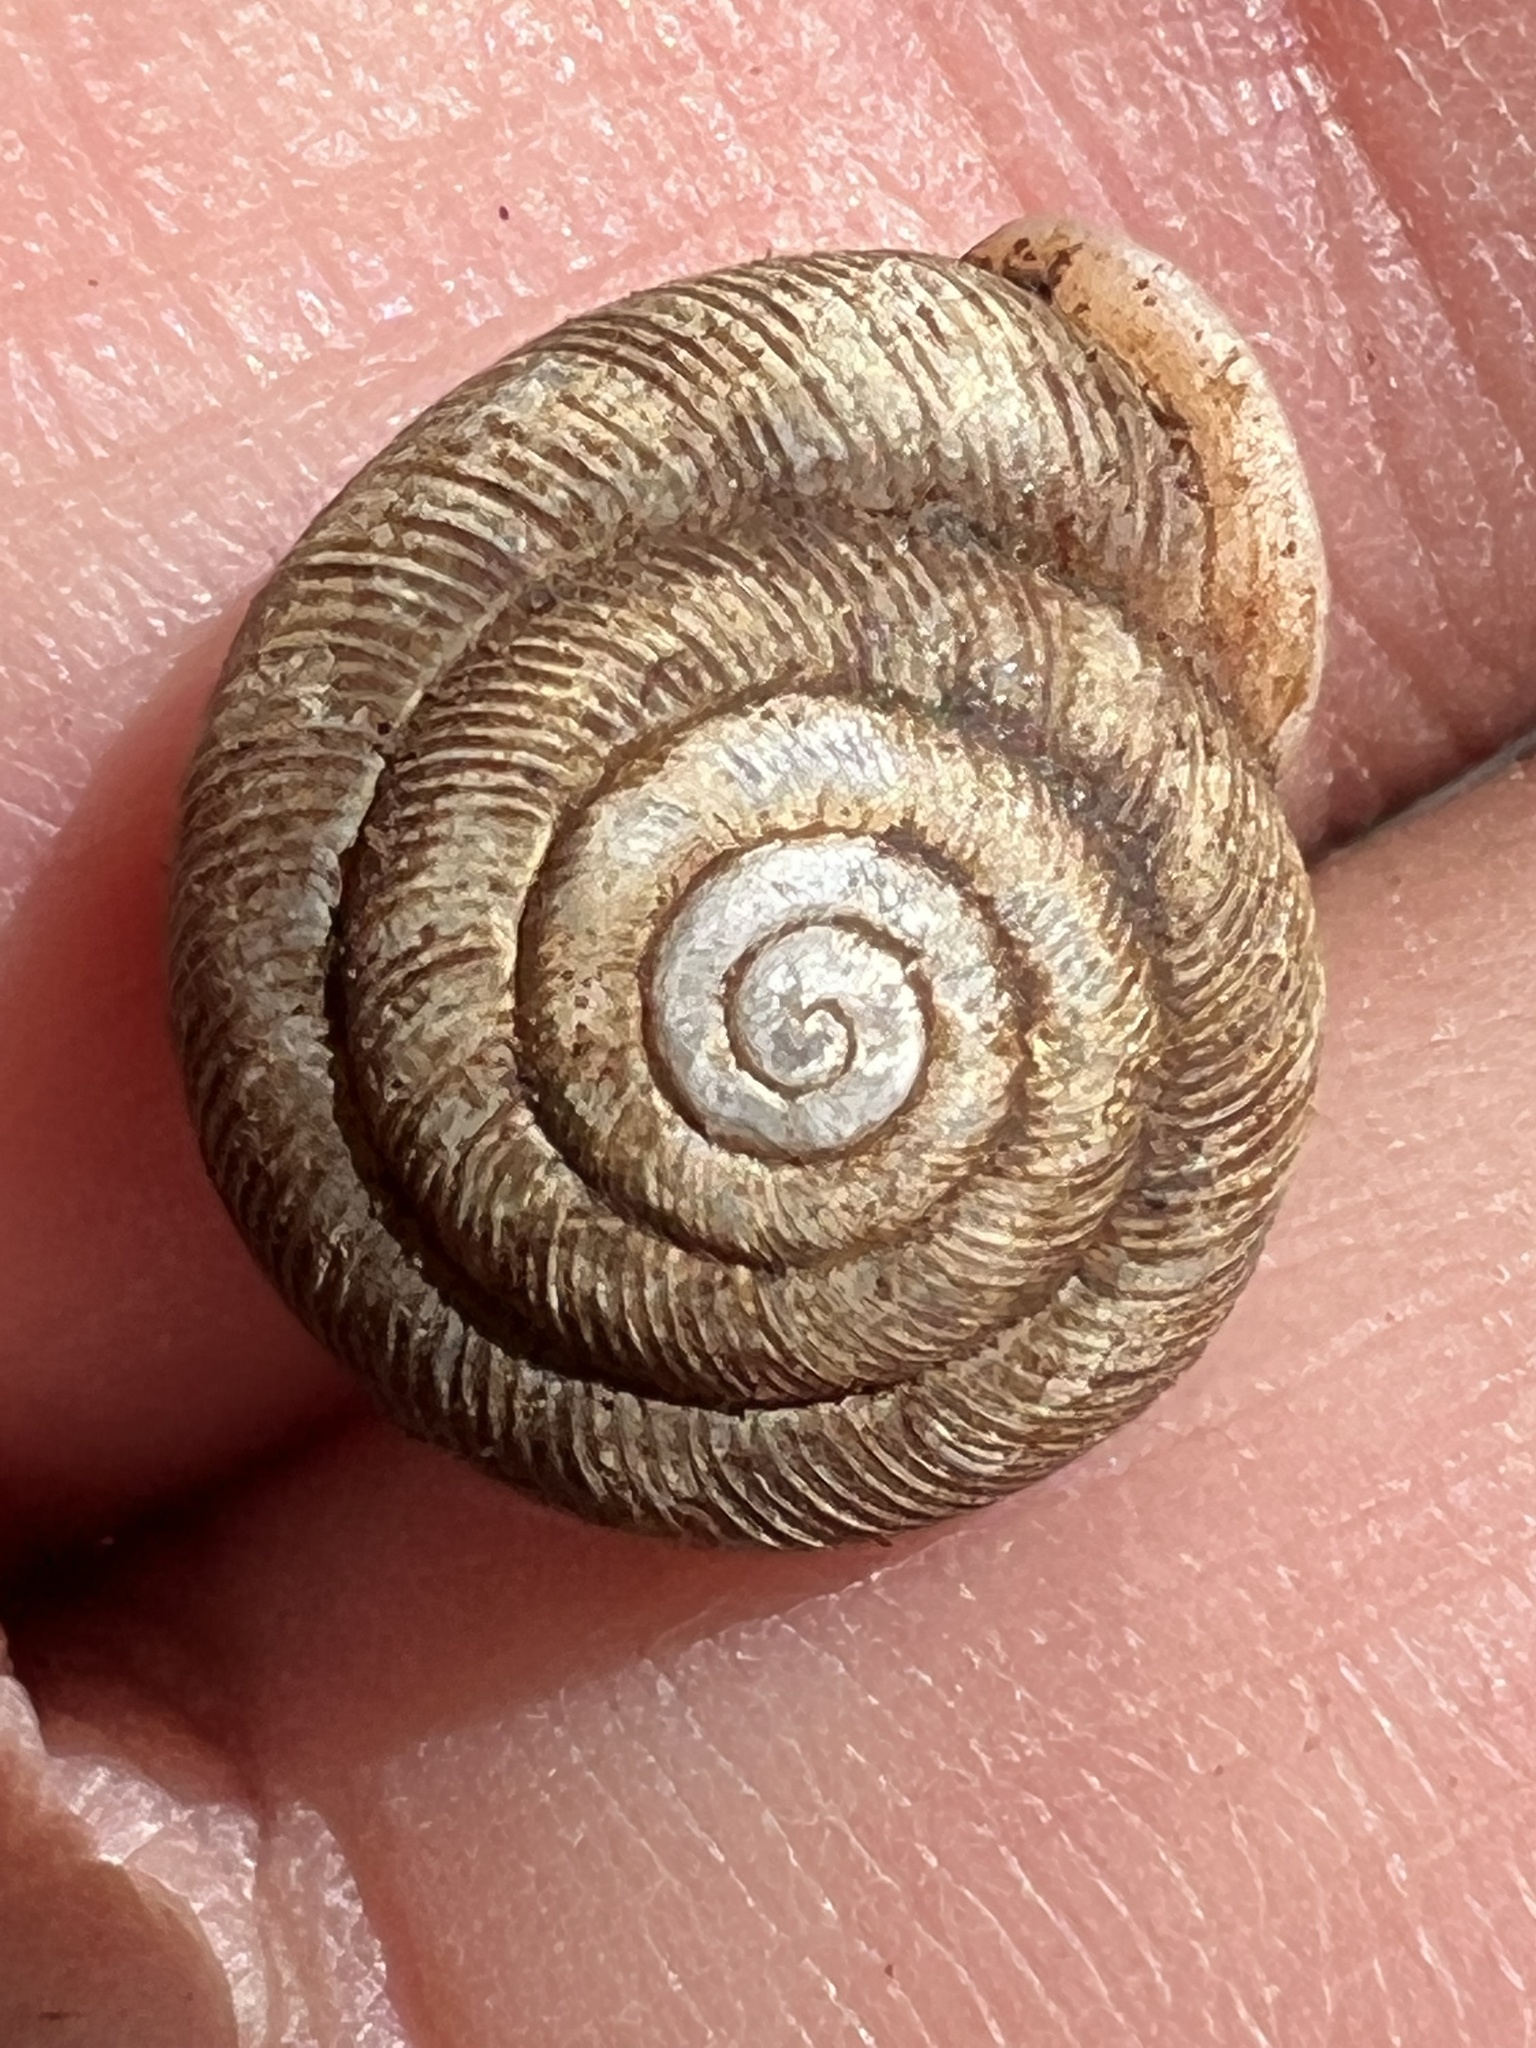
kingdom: Animalia
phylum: Mollusca
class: Gastropoda
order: Stylommatophora
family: Polygyridae
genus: Triodopsis
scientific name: Triodopsis juxtidens
